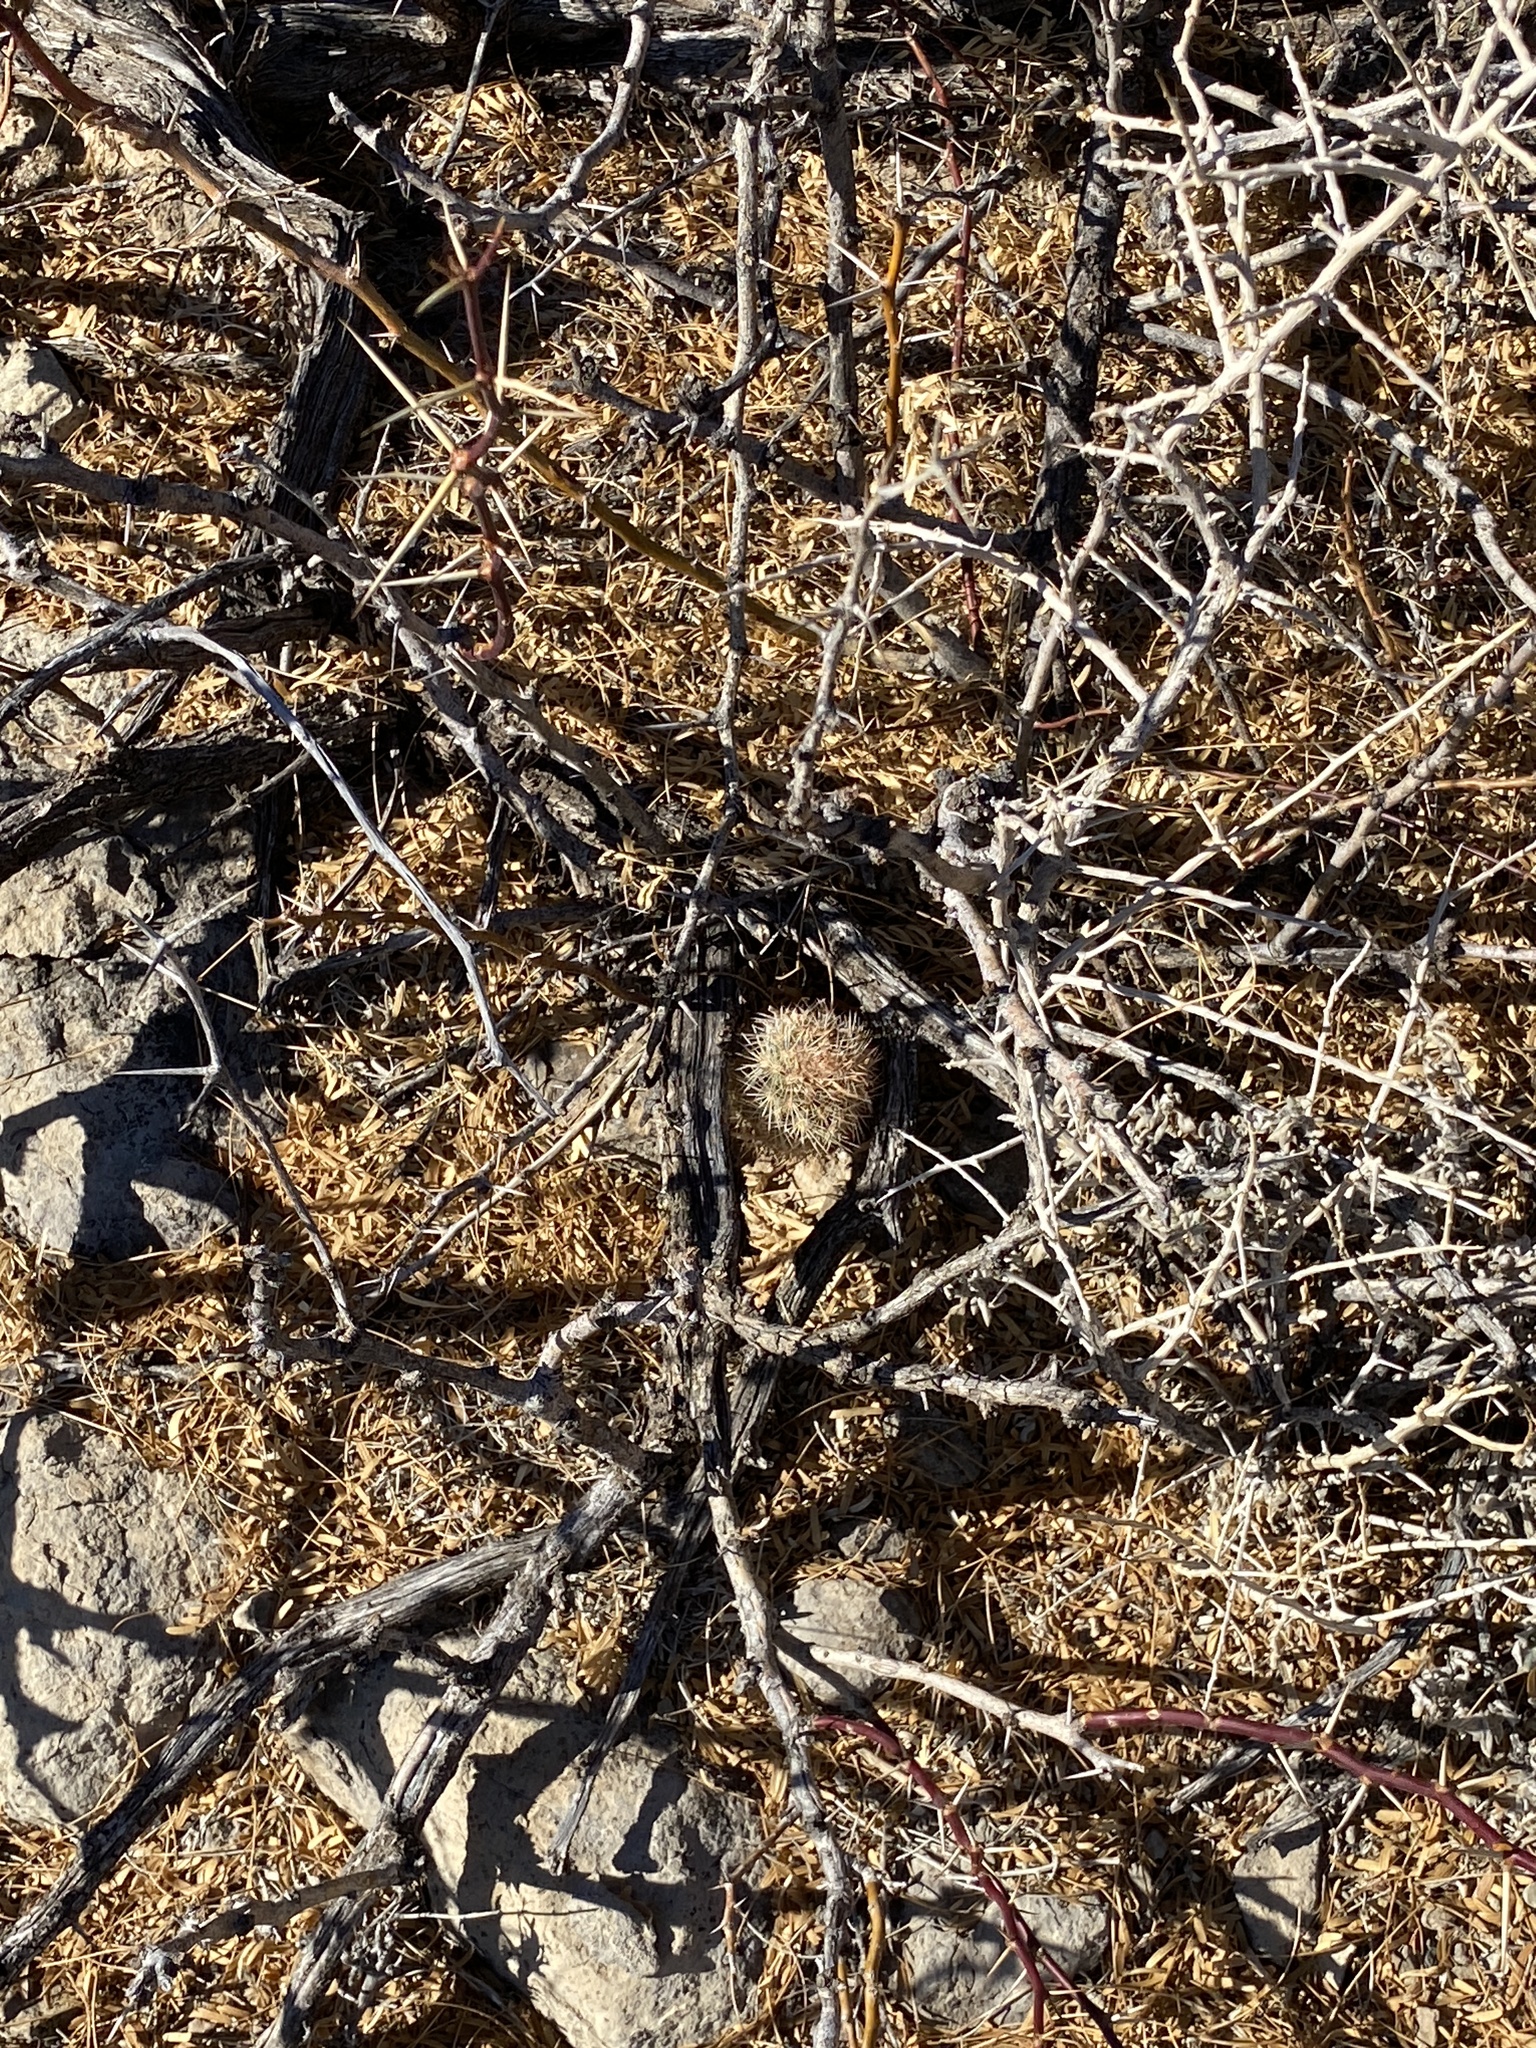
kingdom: Plantae
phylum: Tracheophyta
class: Magnoliopsida
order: Caryophyllales
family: Cactaceae
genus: Echinocereus
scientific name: Echinocereus dasyacanthus
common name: Spiny hedgehog cactus
